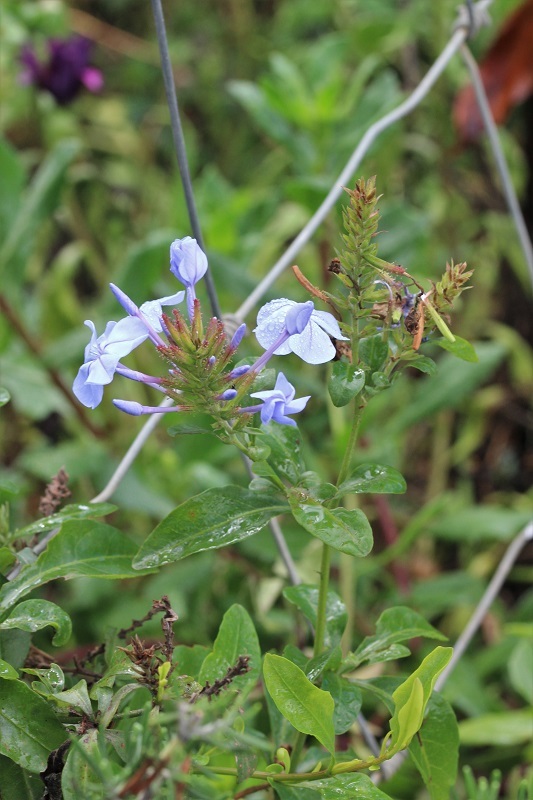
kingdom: Plantae
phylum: Tracheophyta
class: Magnoliopsida
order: Caryophyllales
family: Plumbaginaceae
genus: Plumbago
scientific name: Plumbago auriculata
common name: Cape leadwort
